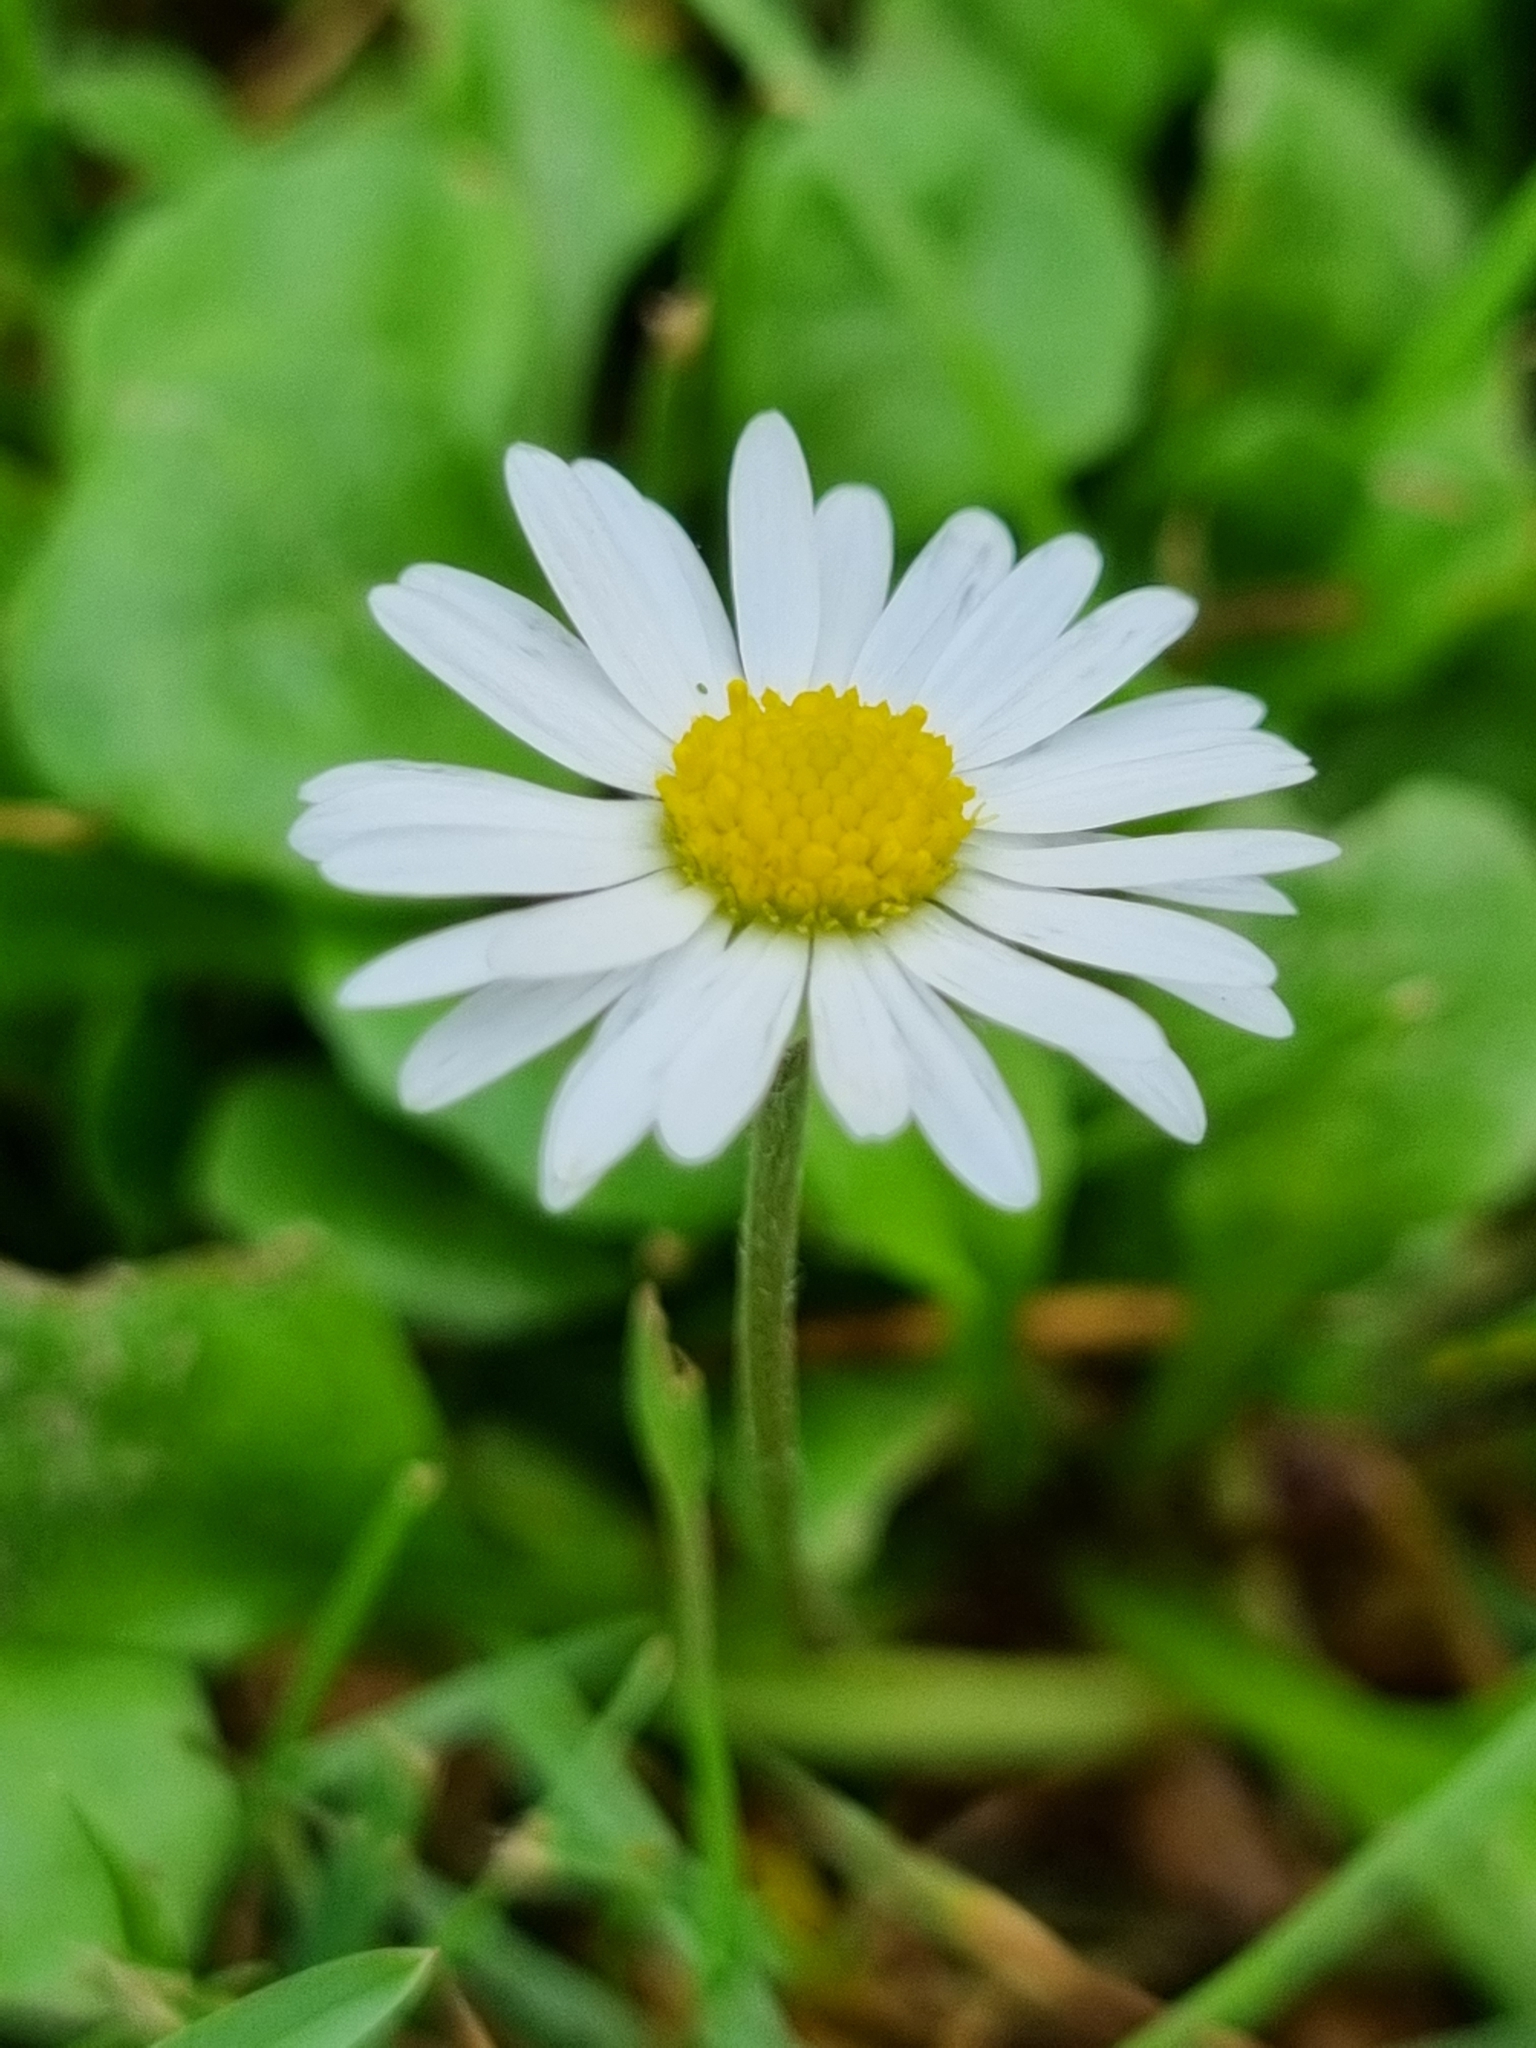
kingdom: Plantae
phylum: Tracheophyta
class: Magnoliopsida
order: Asterales
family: Asteraceae
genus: Bellis
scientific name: Bellis perennis
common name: Lawndaisy
